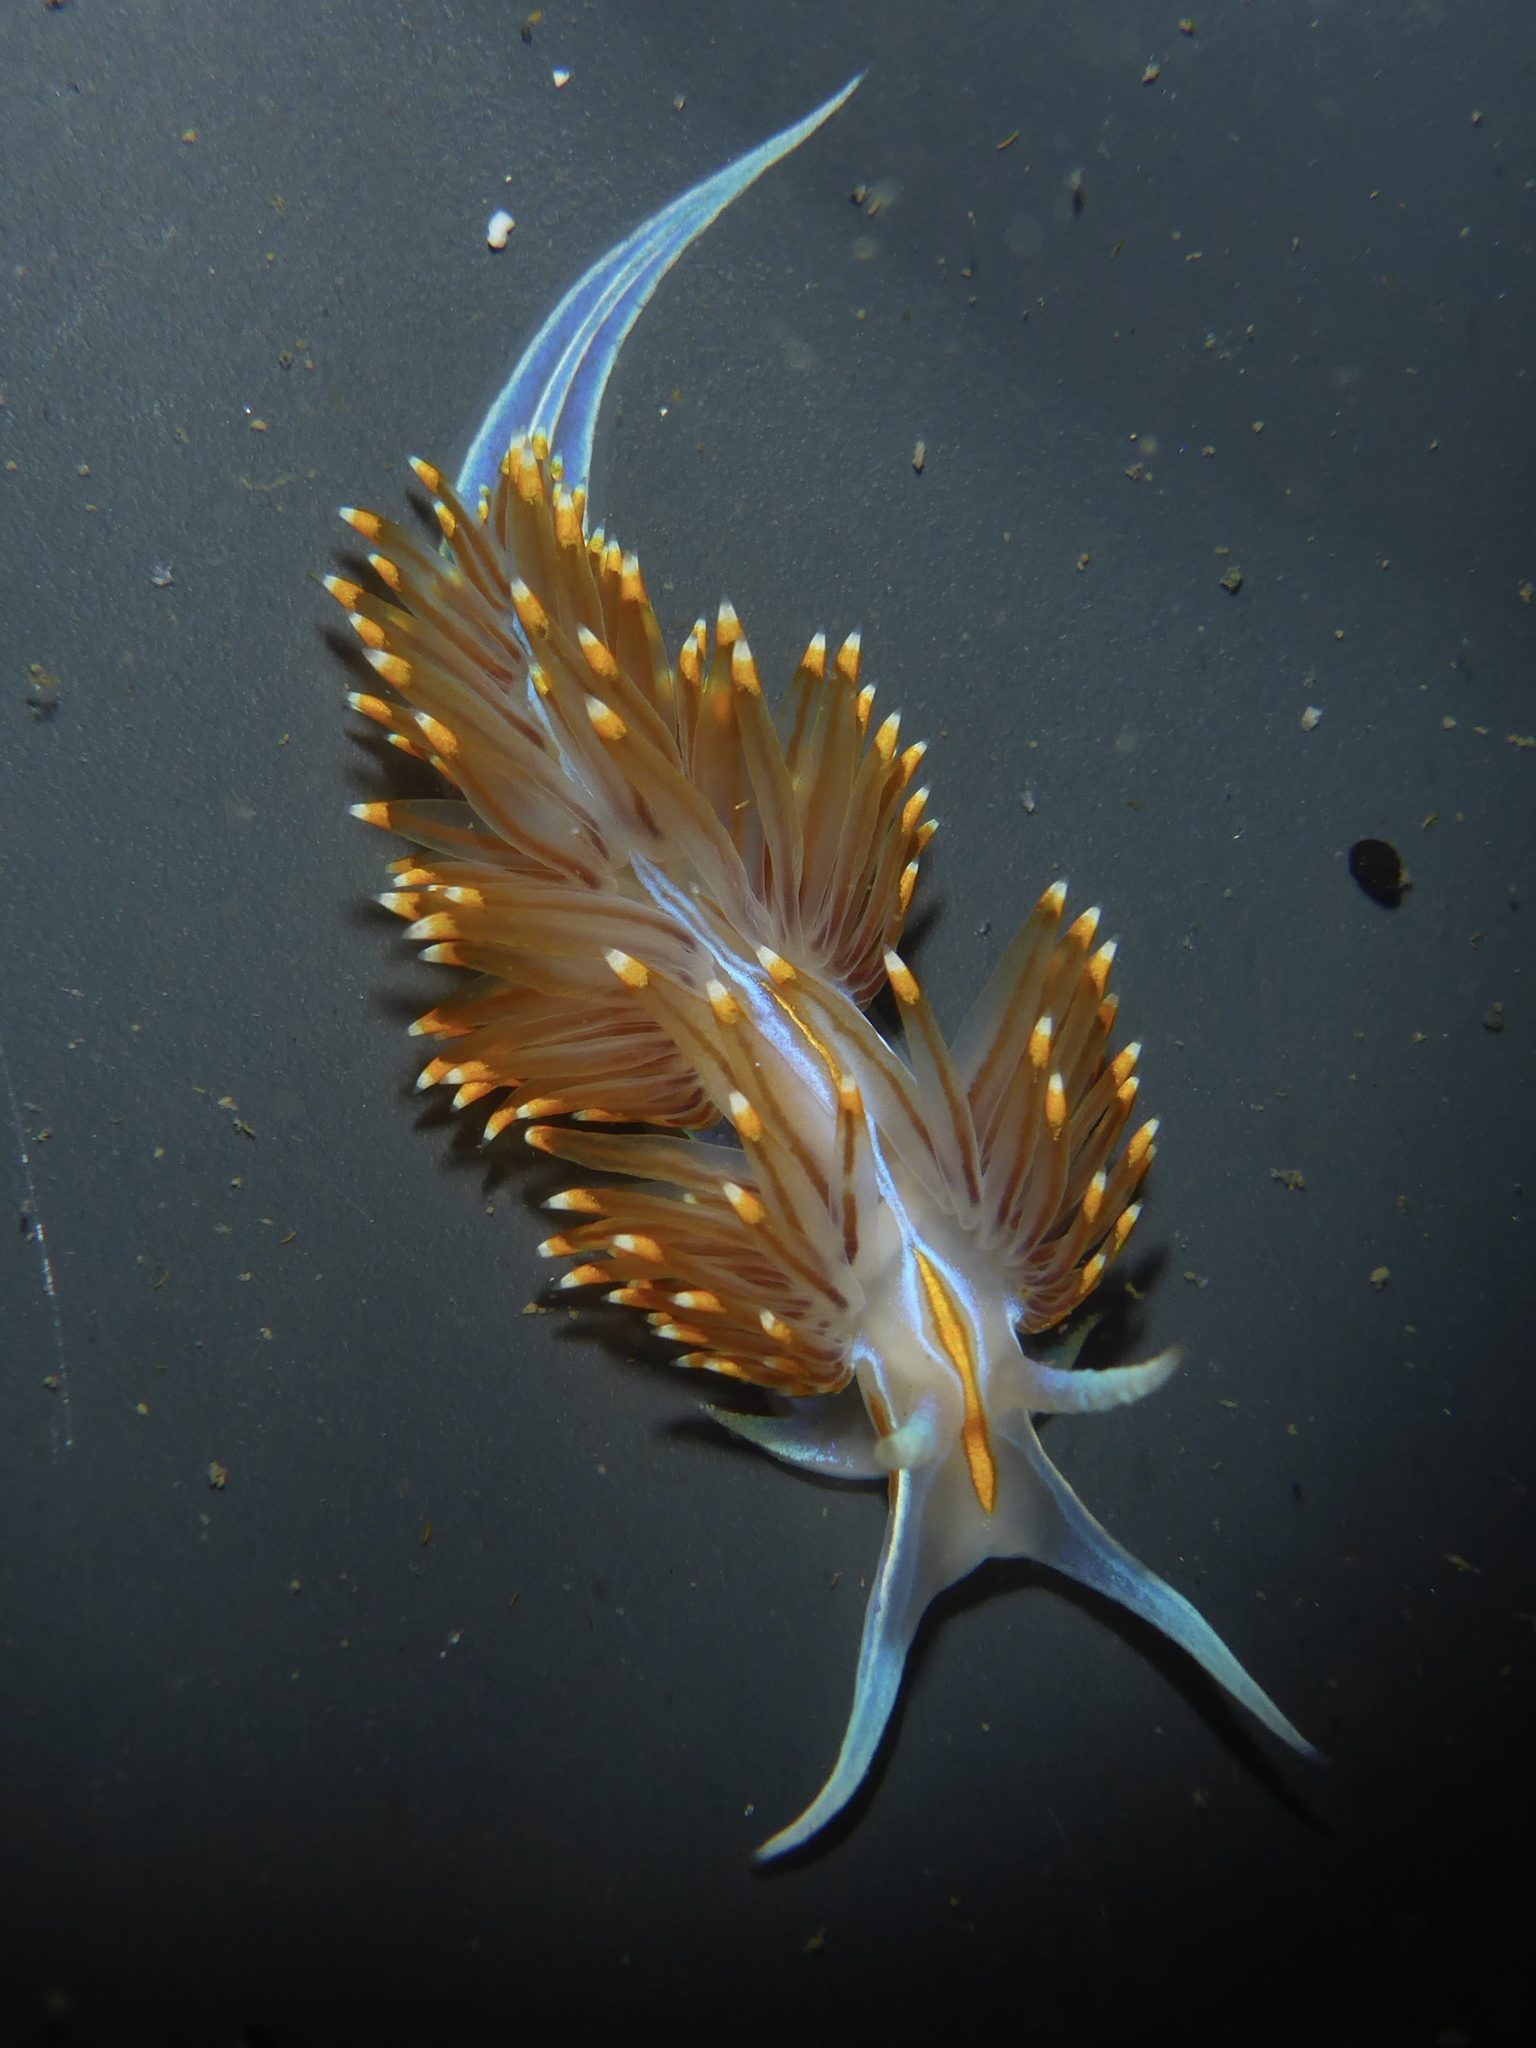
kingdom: Animalia
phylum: Mollusca
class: Gastropoda
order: Nudibranchia
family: Myrrhinidae
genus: Hermissenda
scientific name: Hermissenda opalescens
